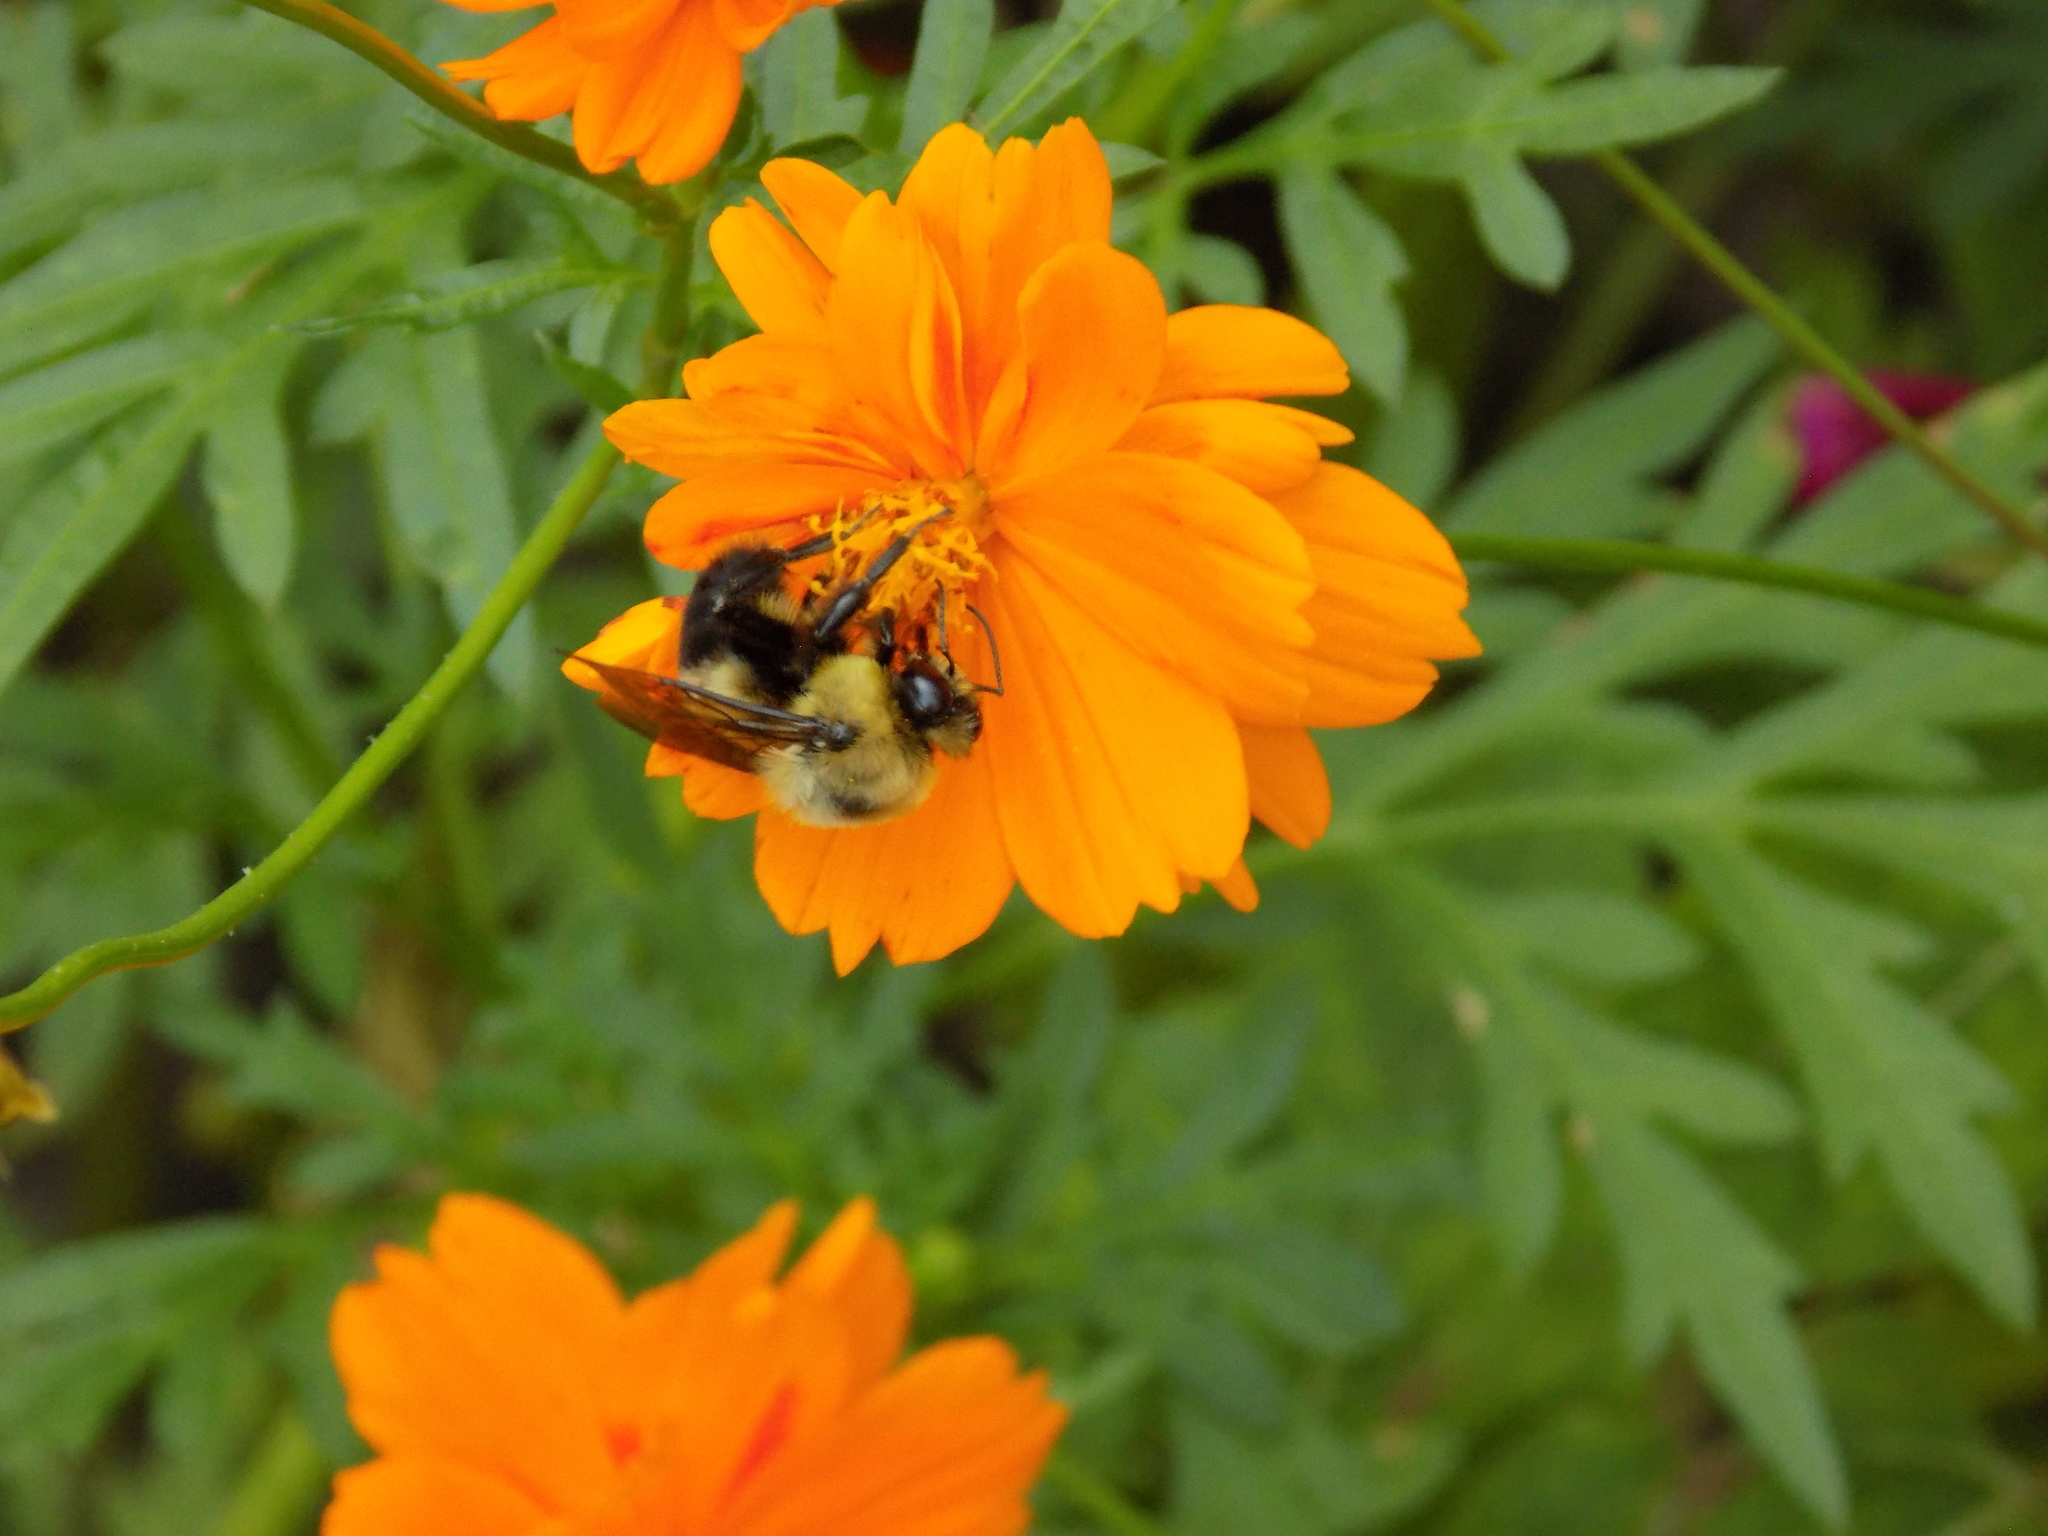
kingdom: Animalia
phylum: Arthropoda
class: Insecta
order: Hymenoptera
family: Apidae
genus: Bombus
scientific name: Bombus griseocollis
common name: Brown-belted bumble bee
